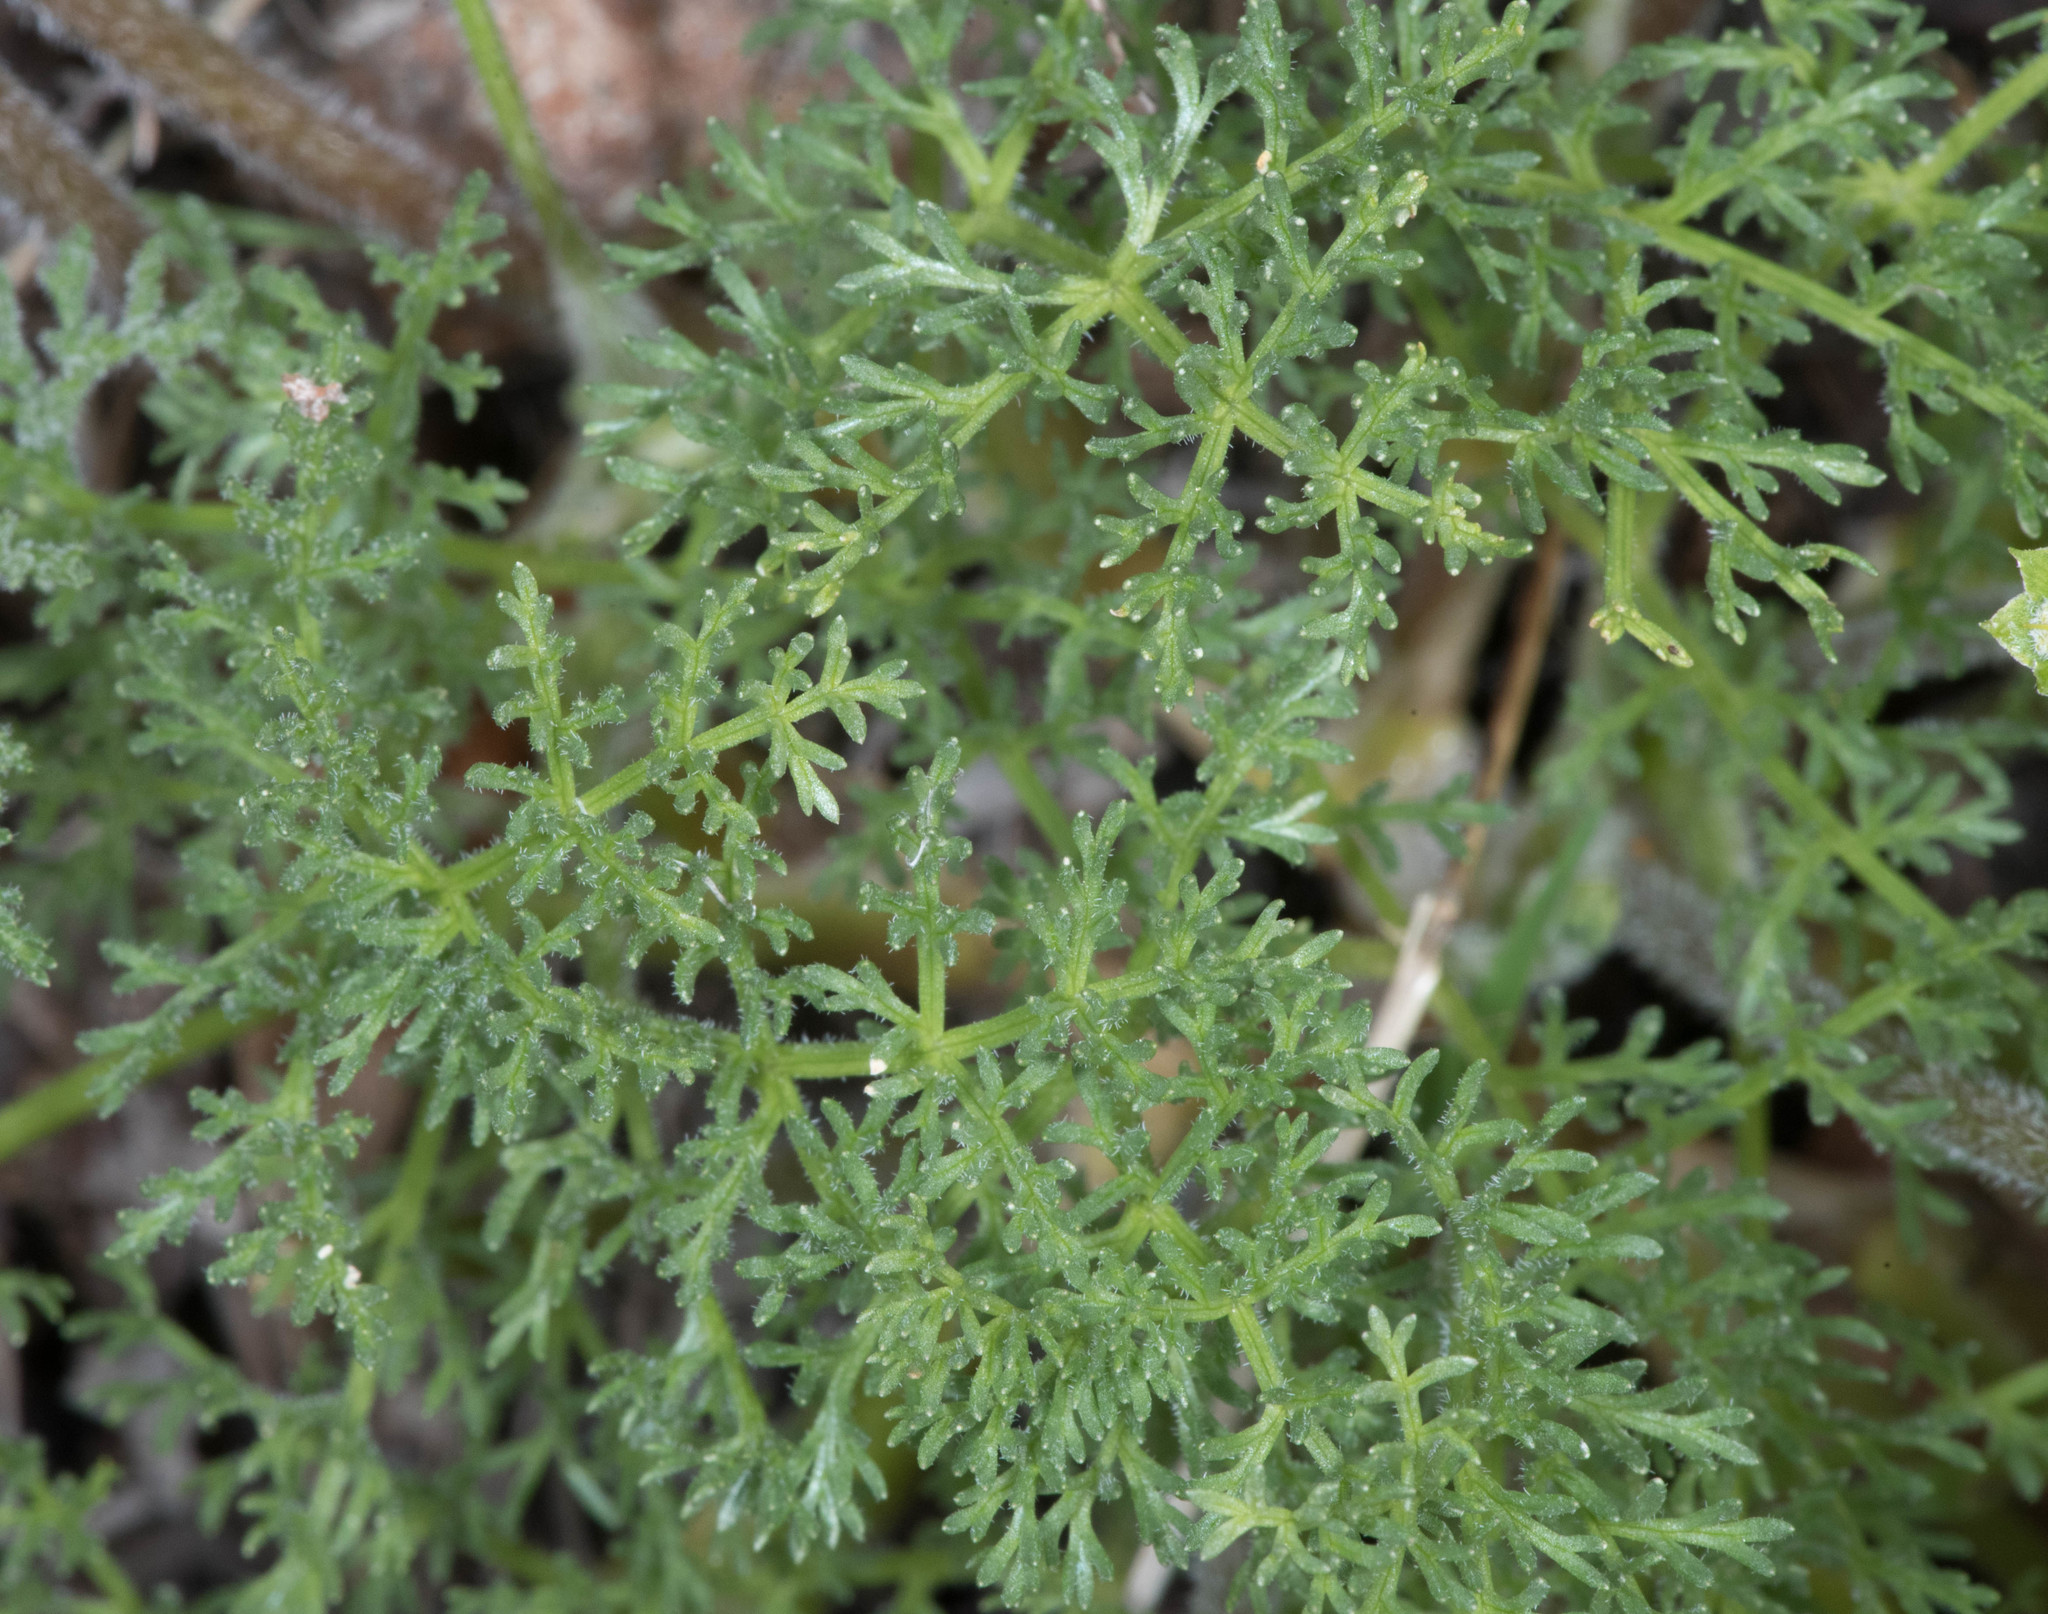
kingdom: Plantae
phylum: Tracheophyta
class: Magnoliopsida
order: Apiales
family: Apiaceae
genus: Lomatium
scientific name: Lomatium dasycarpum
